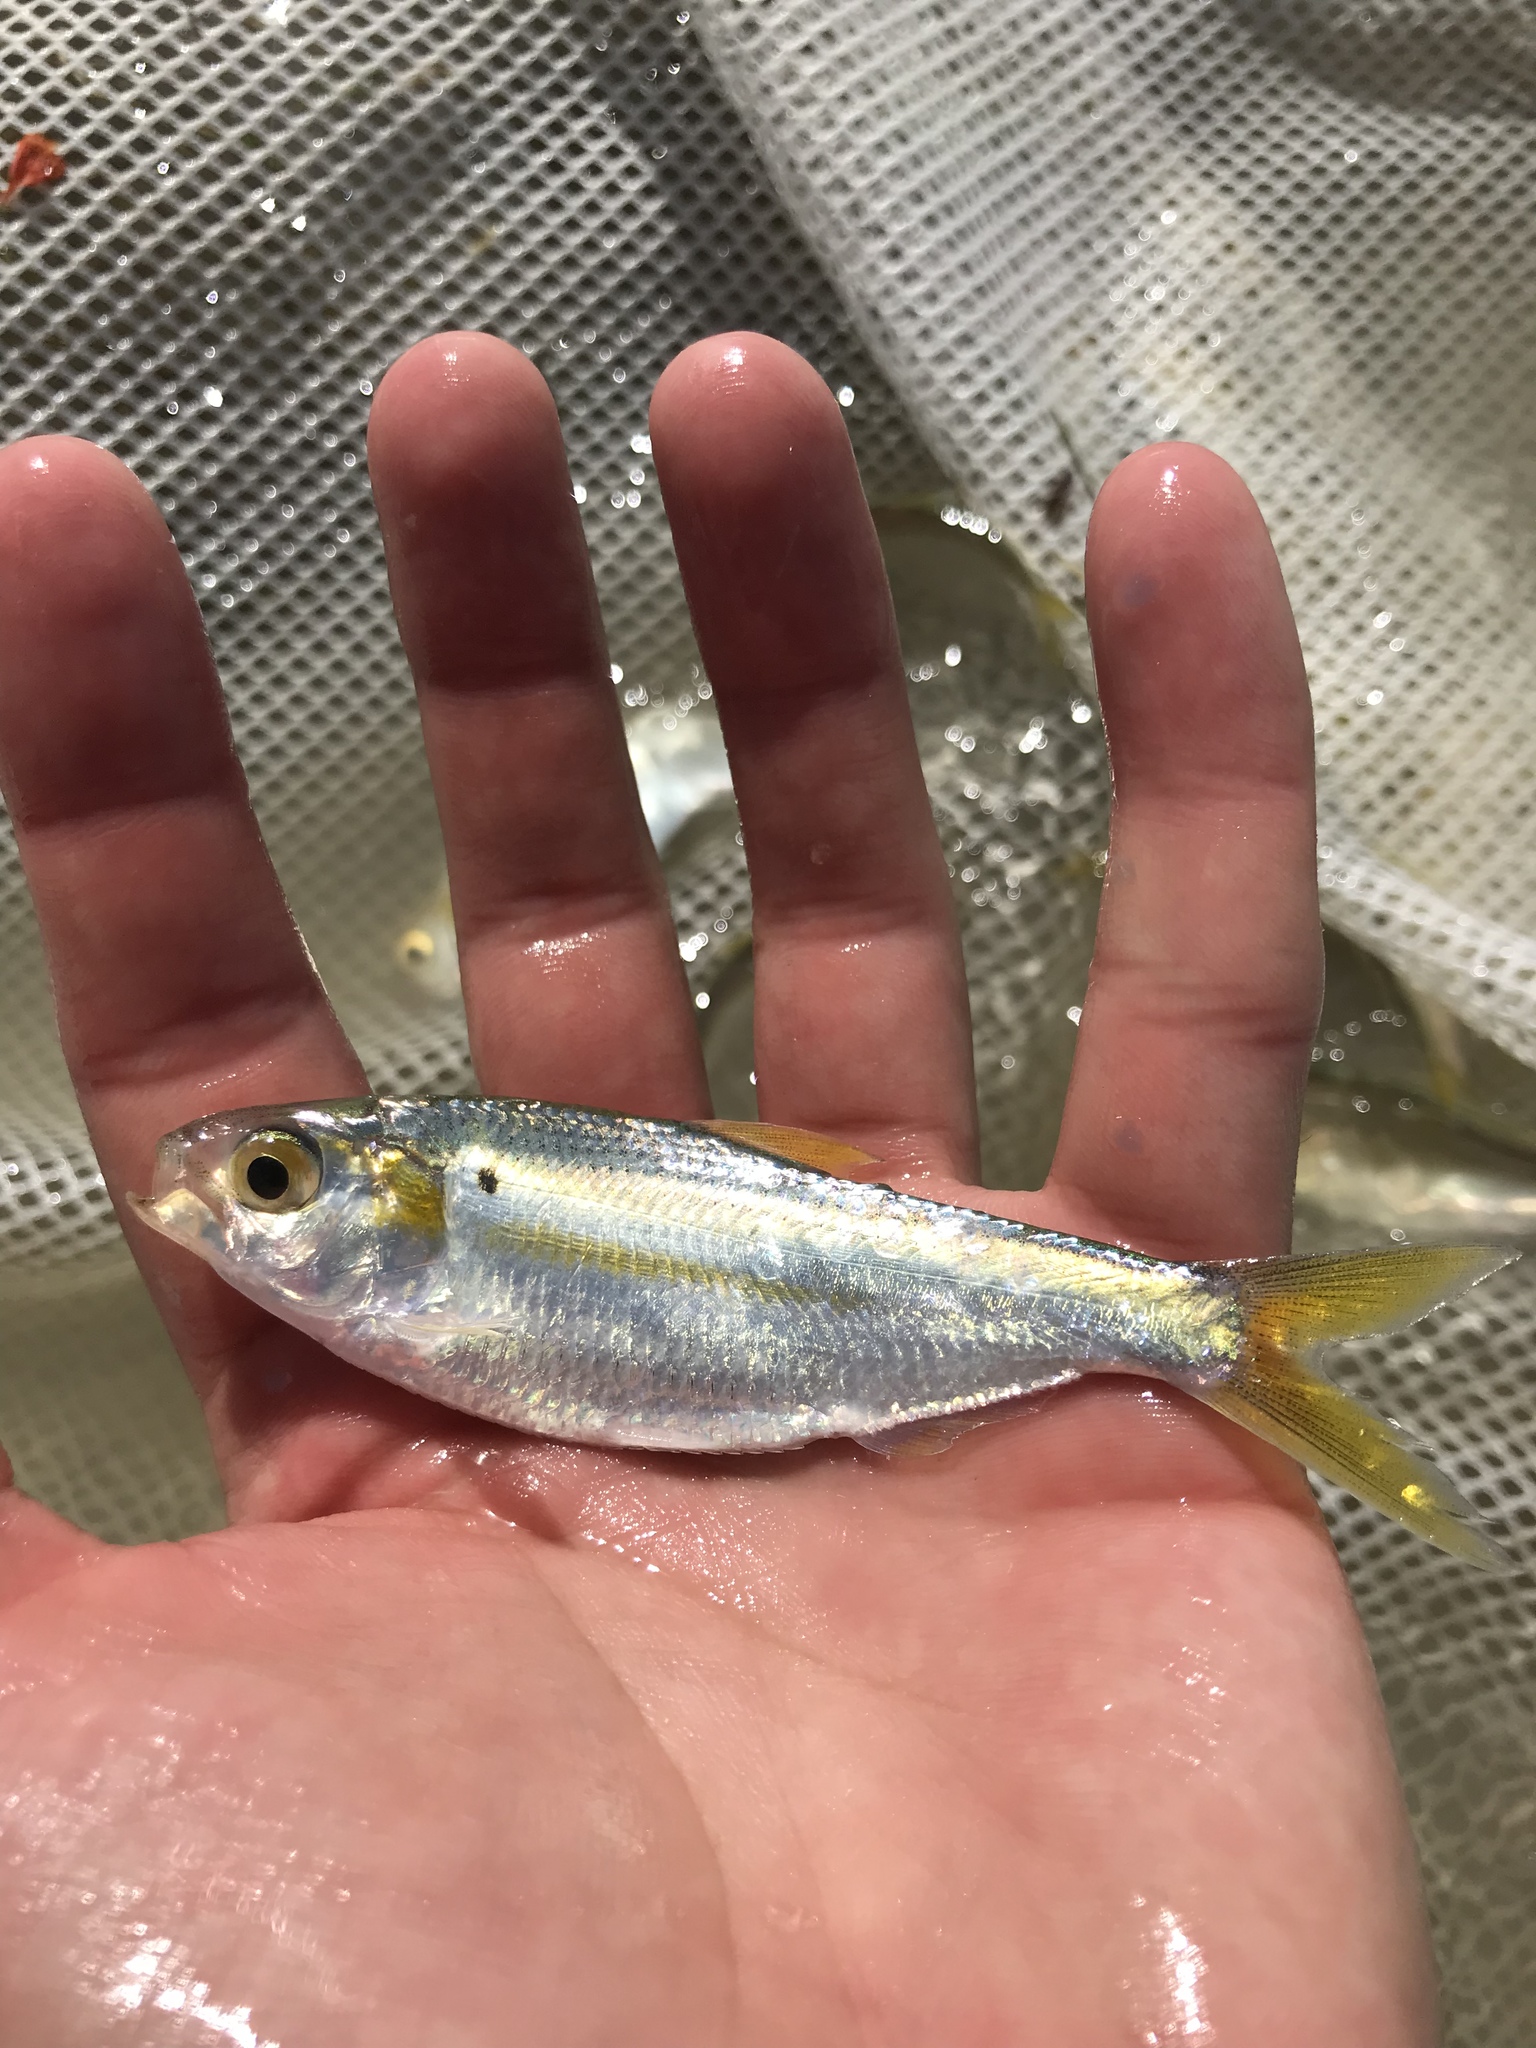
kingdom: Animalia
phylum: Chordata
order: Clupeiformes
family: Clupeidae
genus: Dorosoma
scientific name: Dorosoma petenense
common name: Threadfin shad
